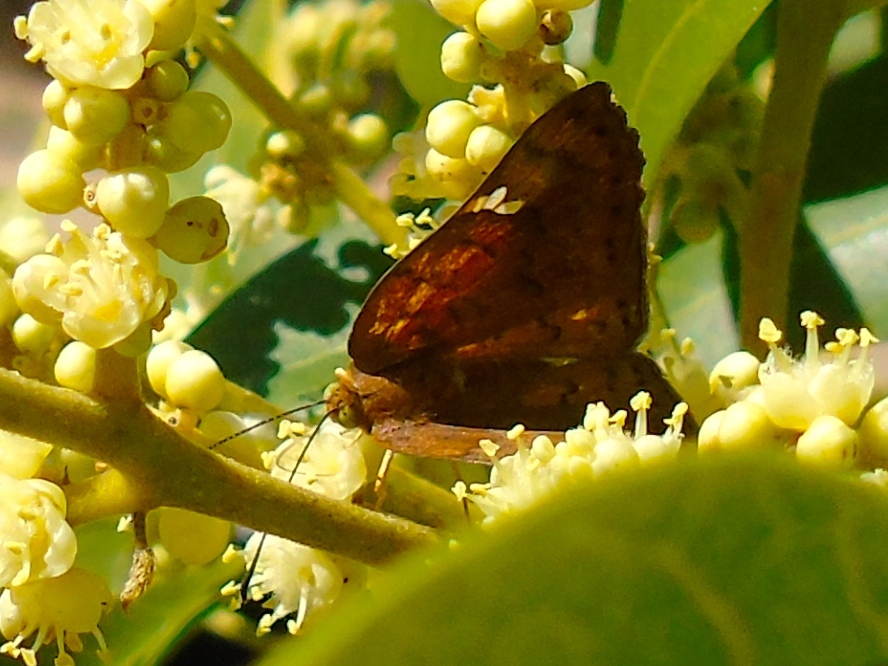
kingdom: Animalia
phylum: Arthropoda
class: Insecta
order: Lepidoptera
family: Riodinidae
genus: Curvie
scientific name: Curvie emesia
